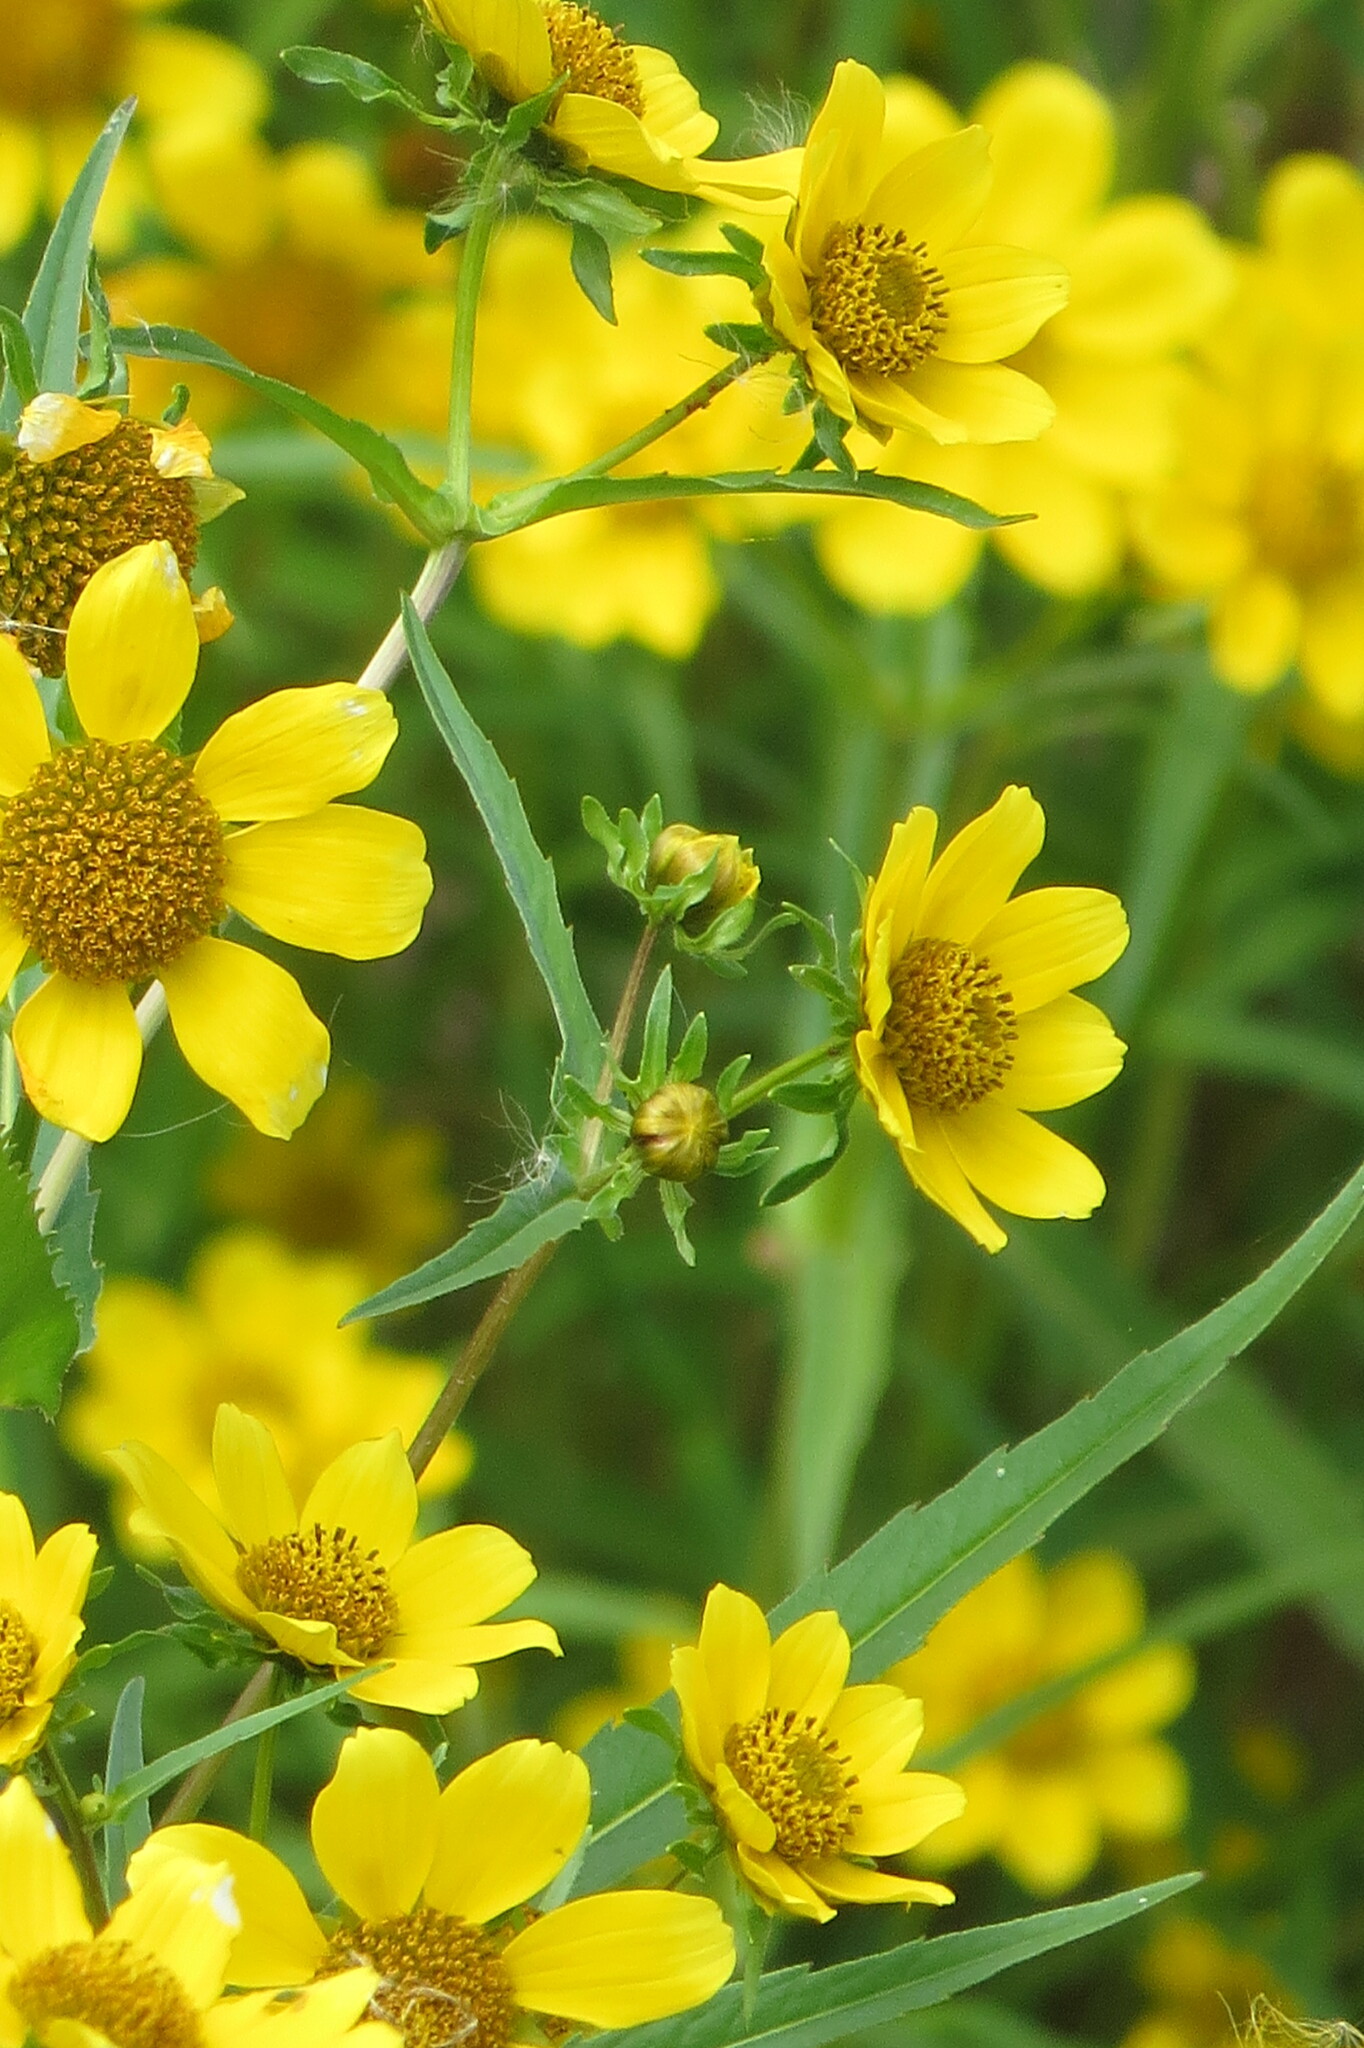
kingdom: Plantae
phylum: Tracheophyta
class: Magnoliopsida
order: Asterales
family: Asteraceae
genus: Bidens
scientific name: Bidens cernua
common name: Nodding bur-marigold
